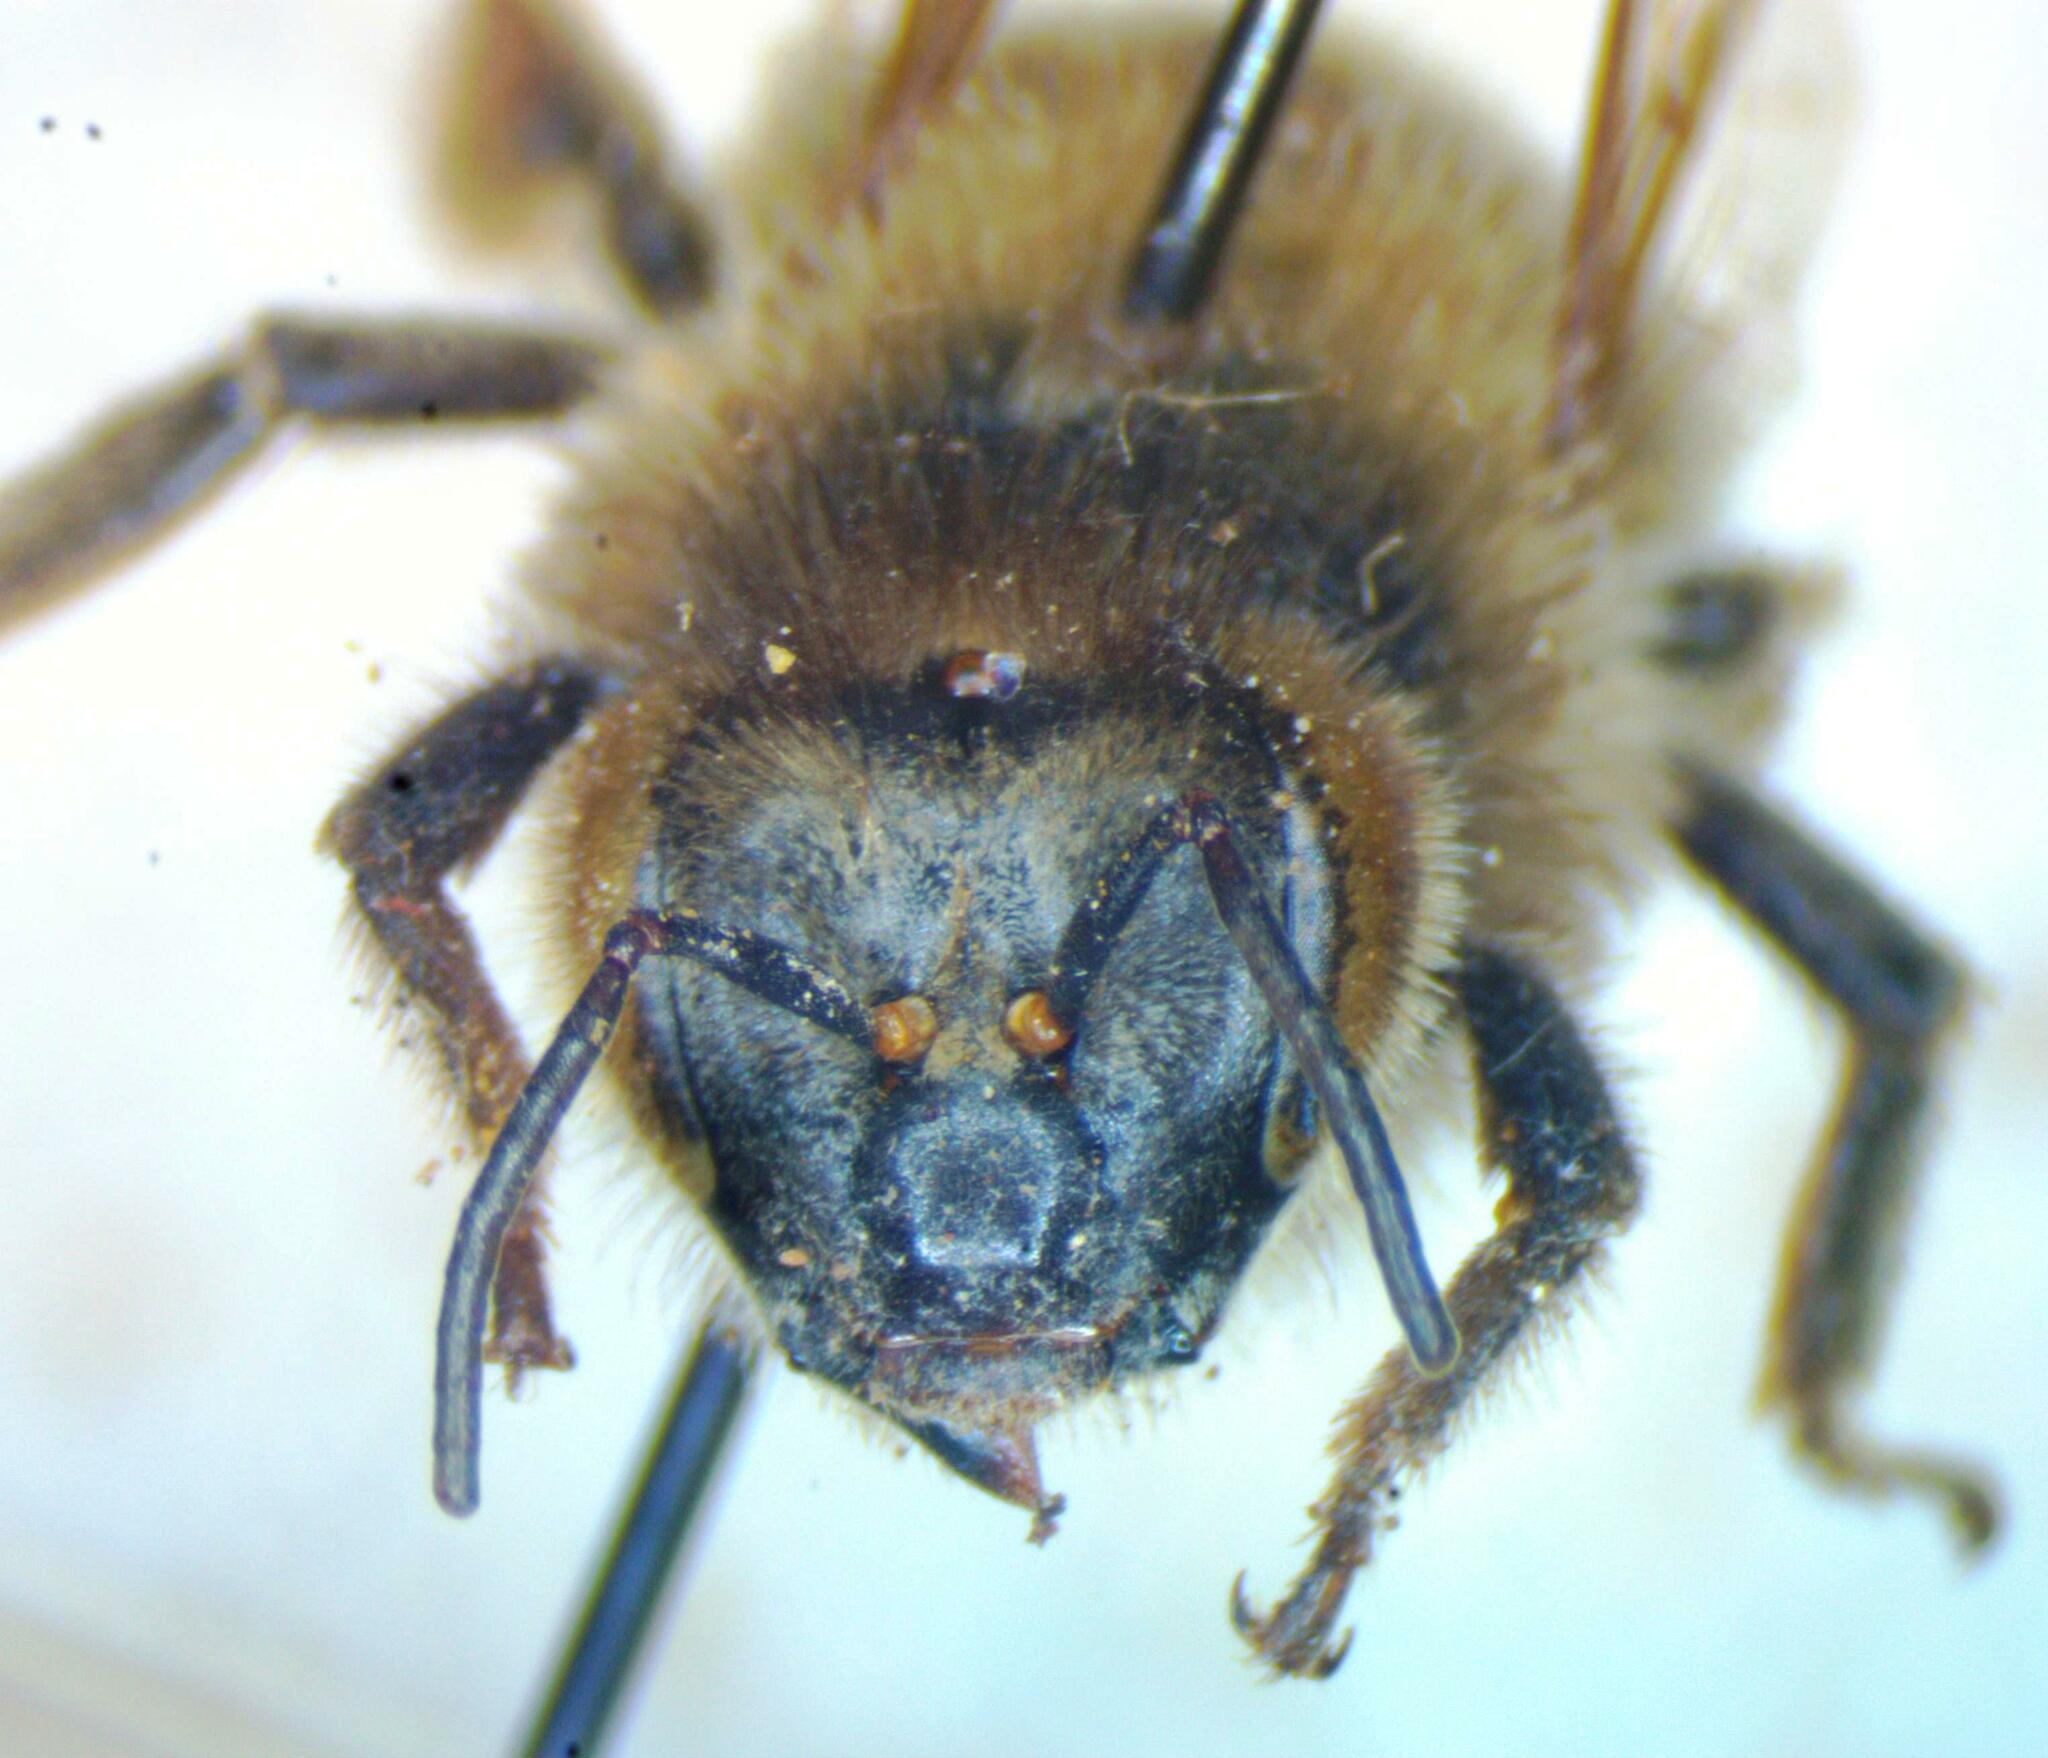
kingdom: Animalia
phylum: Arthropoda
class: Insecta
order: Hymenoptera
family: Apidae
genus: Apis
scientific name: Apis mellifera
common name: Honey bee
